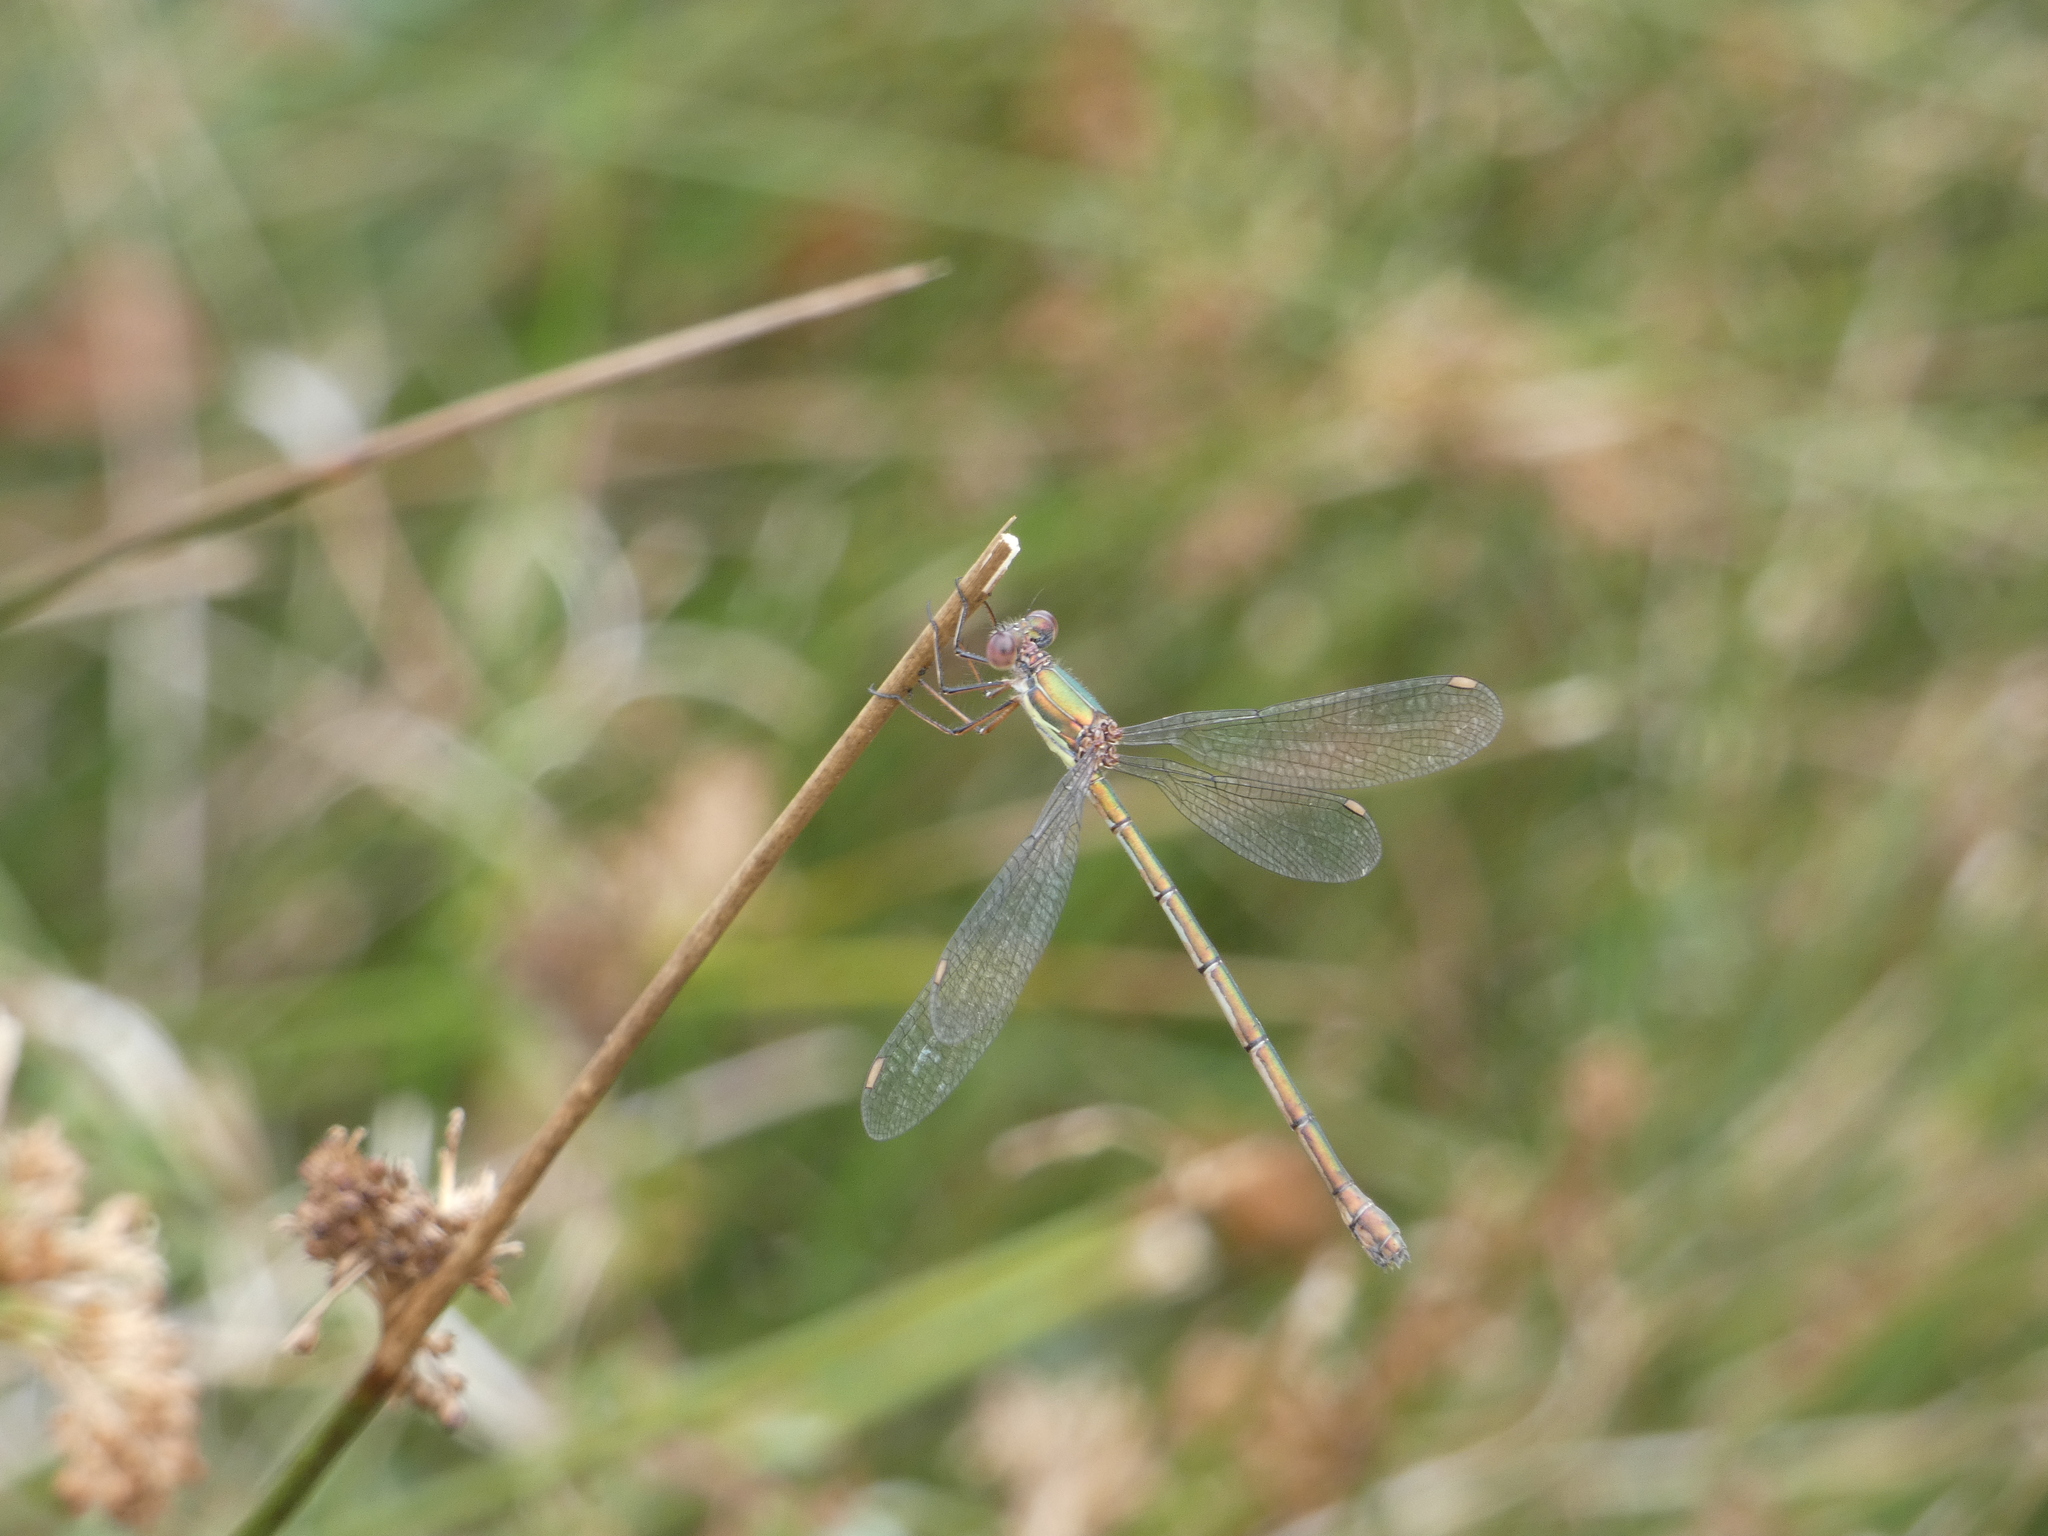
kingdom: Animalia
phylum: Arthropoda
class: Insecta
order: Odonata
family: Lestidae
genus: Chalcolestes
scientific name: Chalcolestes viridis
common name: Green emerald damselfly
